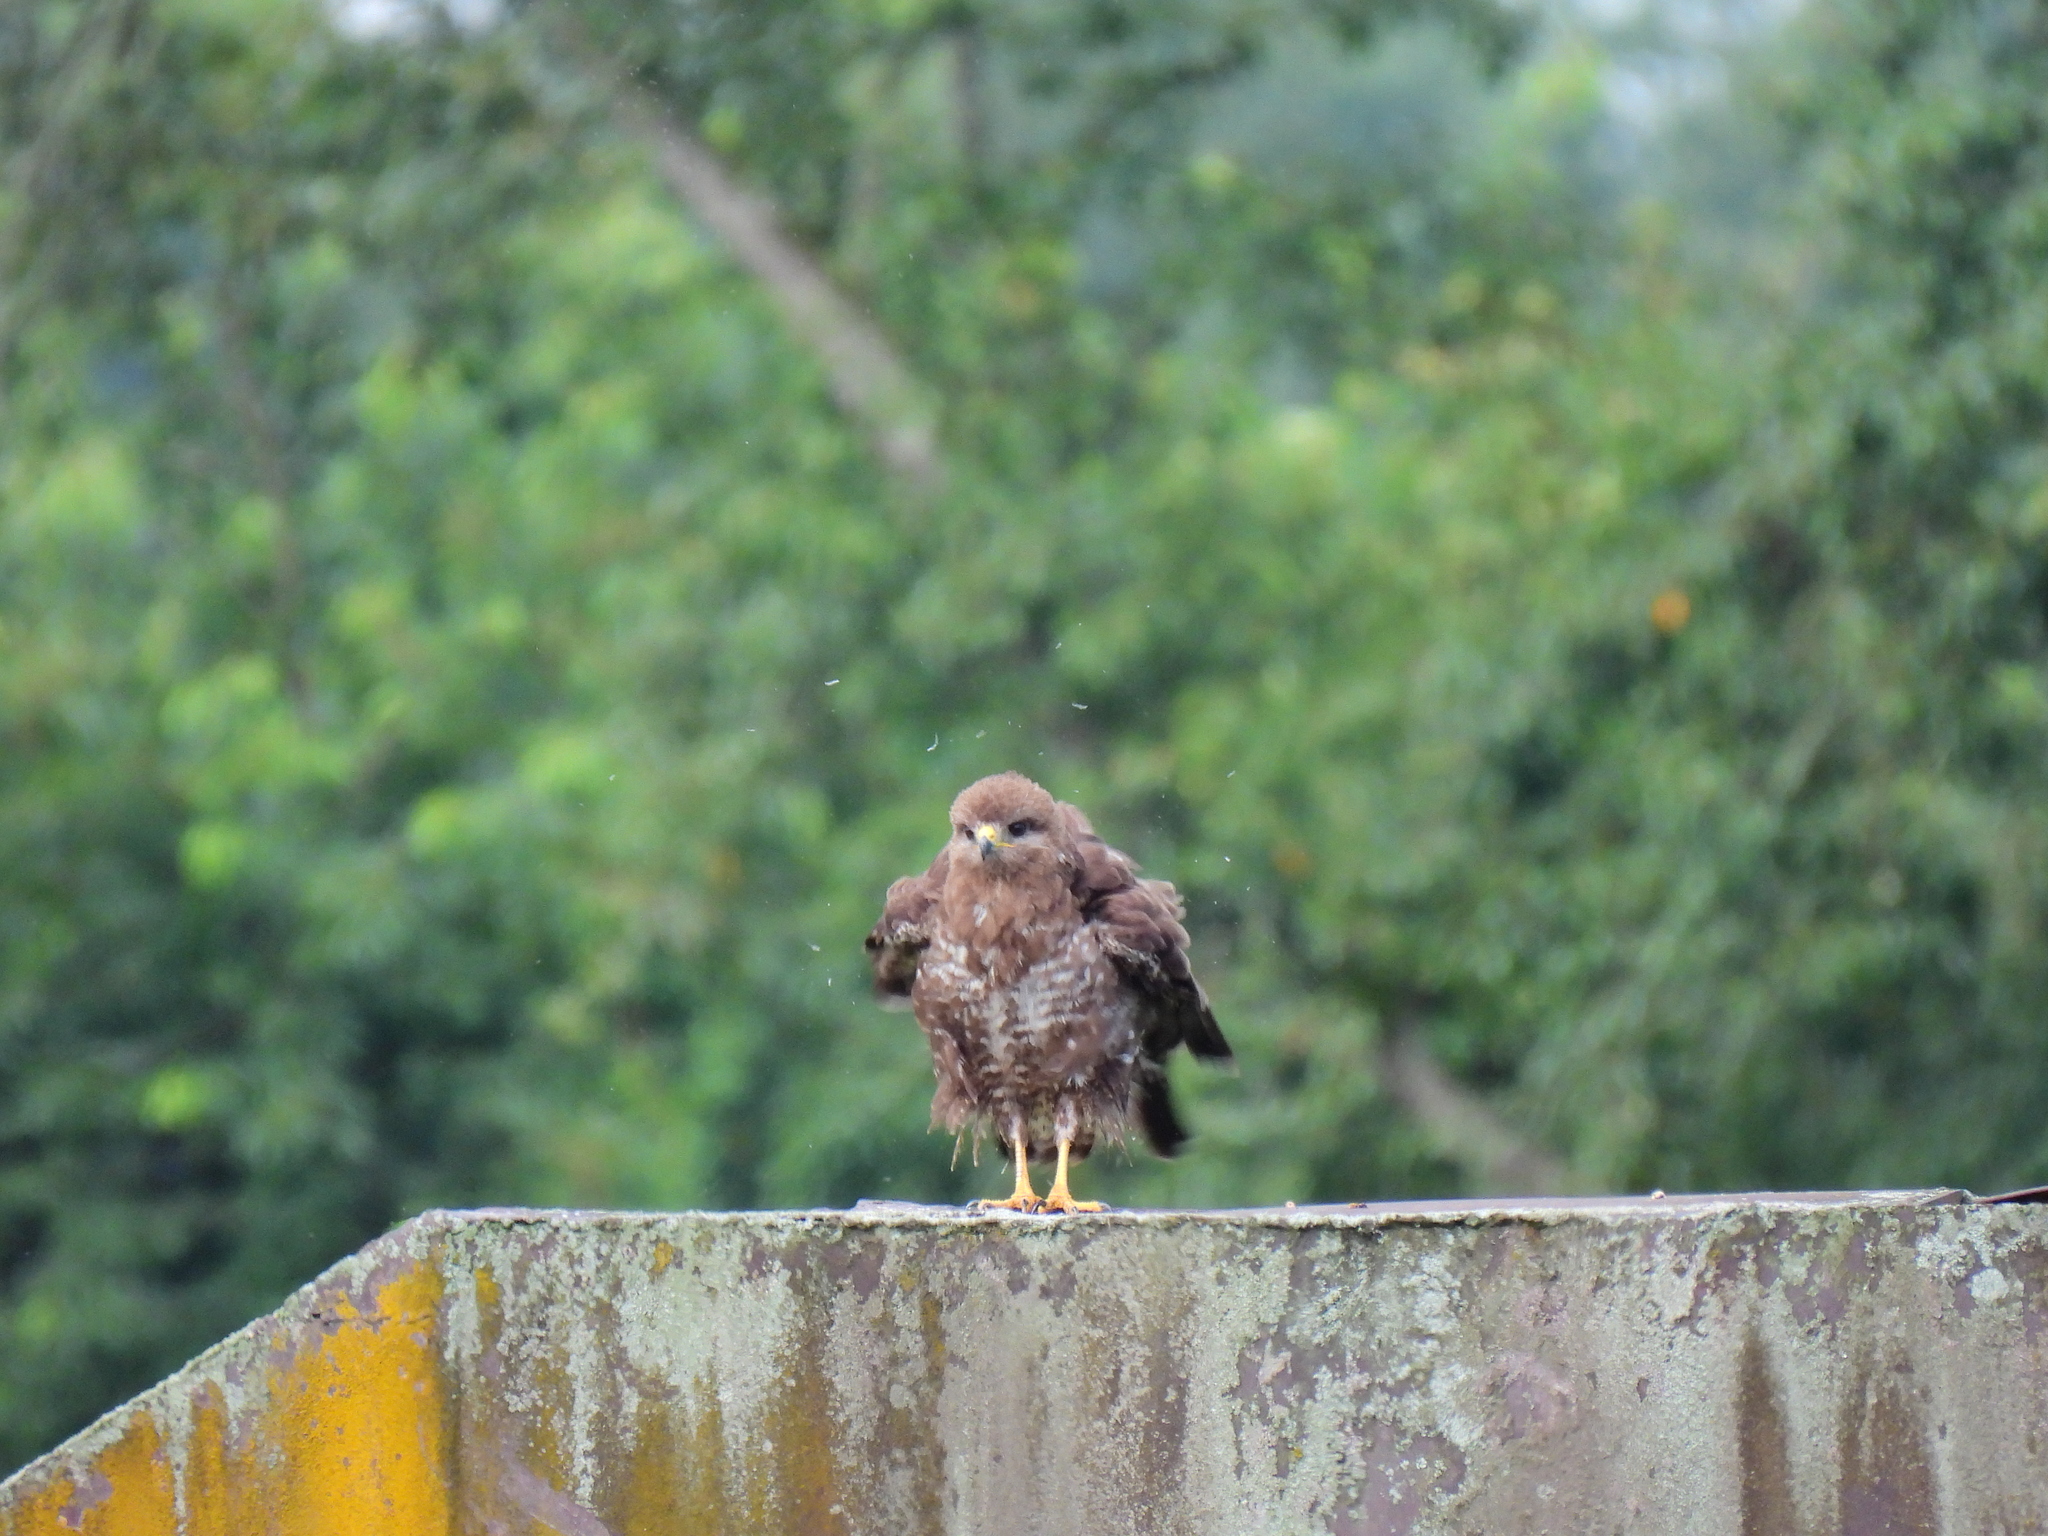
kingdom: Animalia
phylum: Chordata
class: Aves
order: Accipitriformes
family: Accipitridae
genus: Buteo
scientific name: Buteo buteo
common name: Common buzzard
